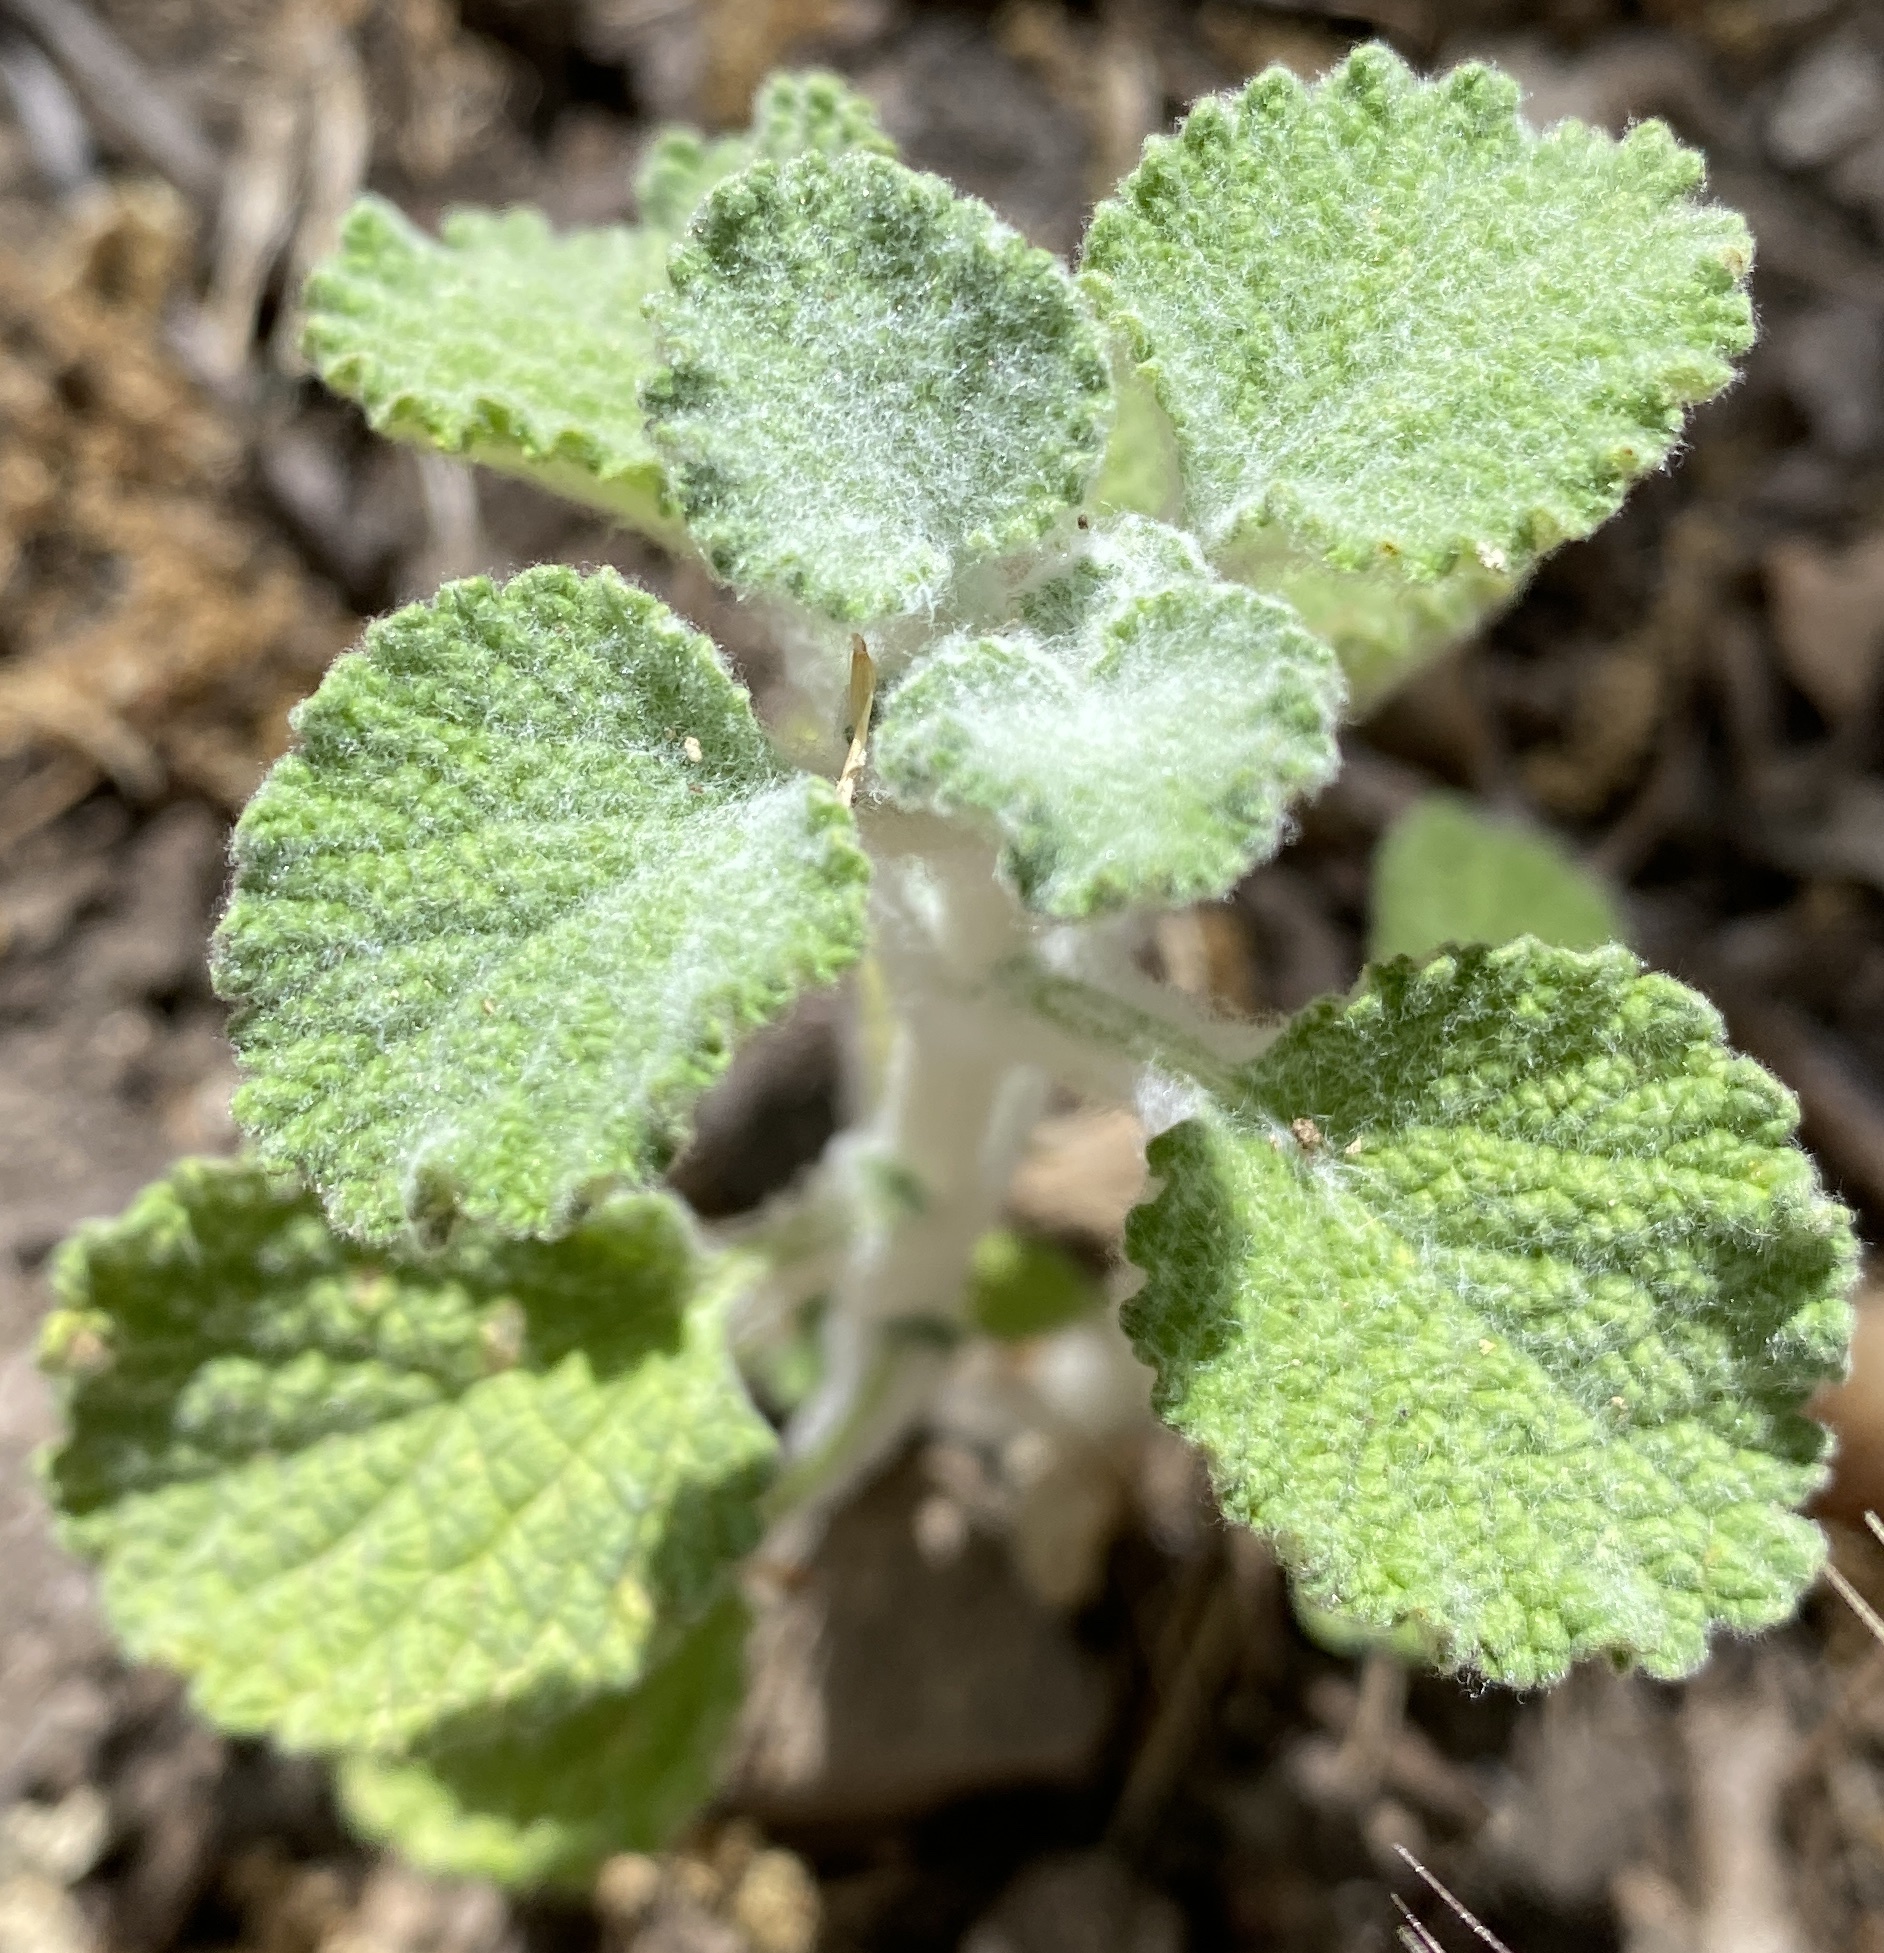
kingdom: Plantae
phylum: Tracheophyta
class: Magnoliopsida
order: Lamiales
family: Lamiaceae
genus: Marrubium
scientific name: Marrubium vulgare
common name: Horehound
